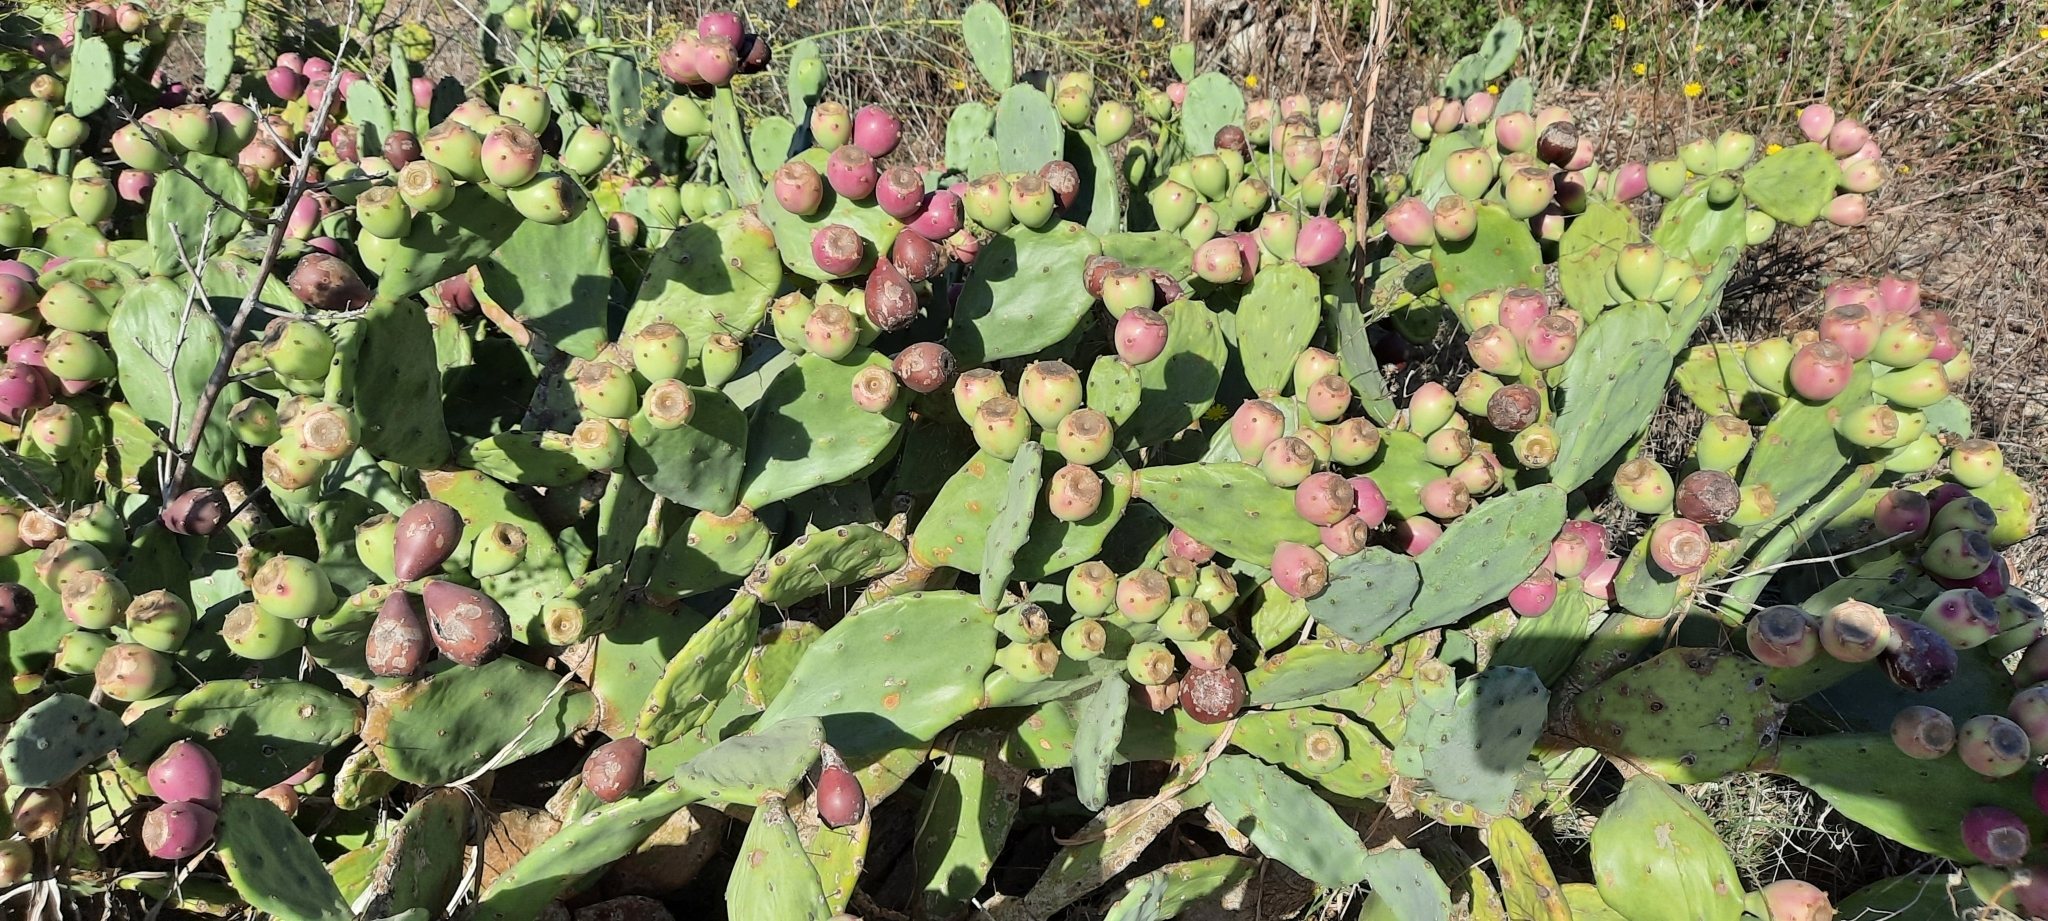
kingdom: Plantae
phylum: Tracheophyta
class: Magnoliopsida
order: Caryophyllales
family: Cactaceae
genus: Opuntia
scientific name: Opuntia stricta
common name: Erect pricklypear
